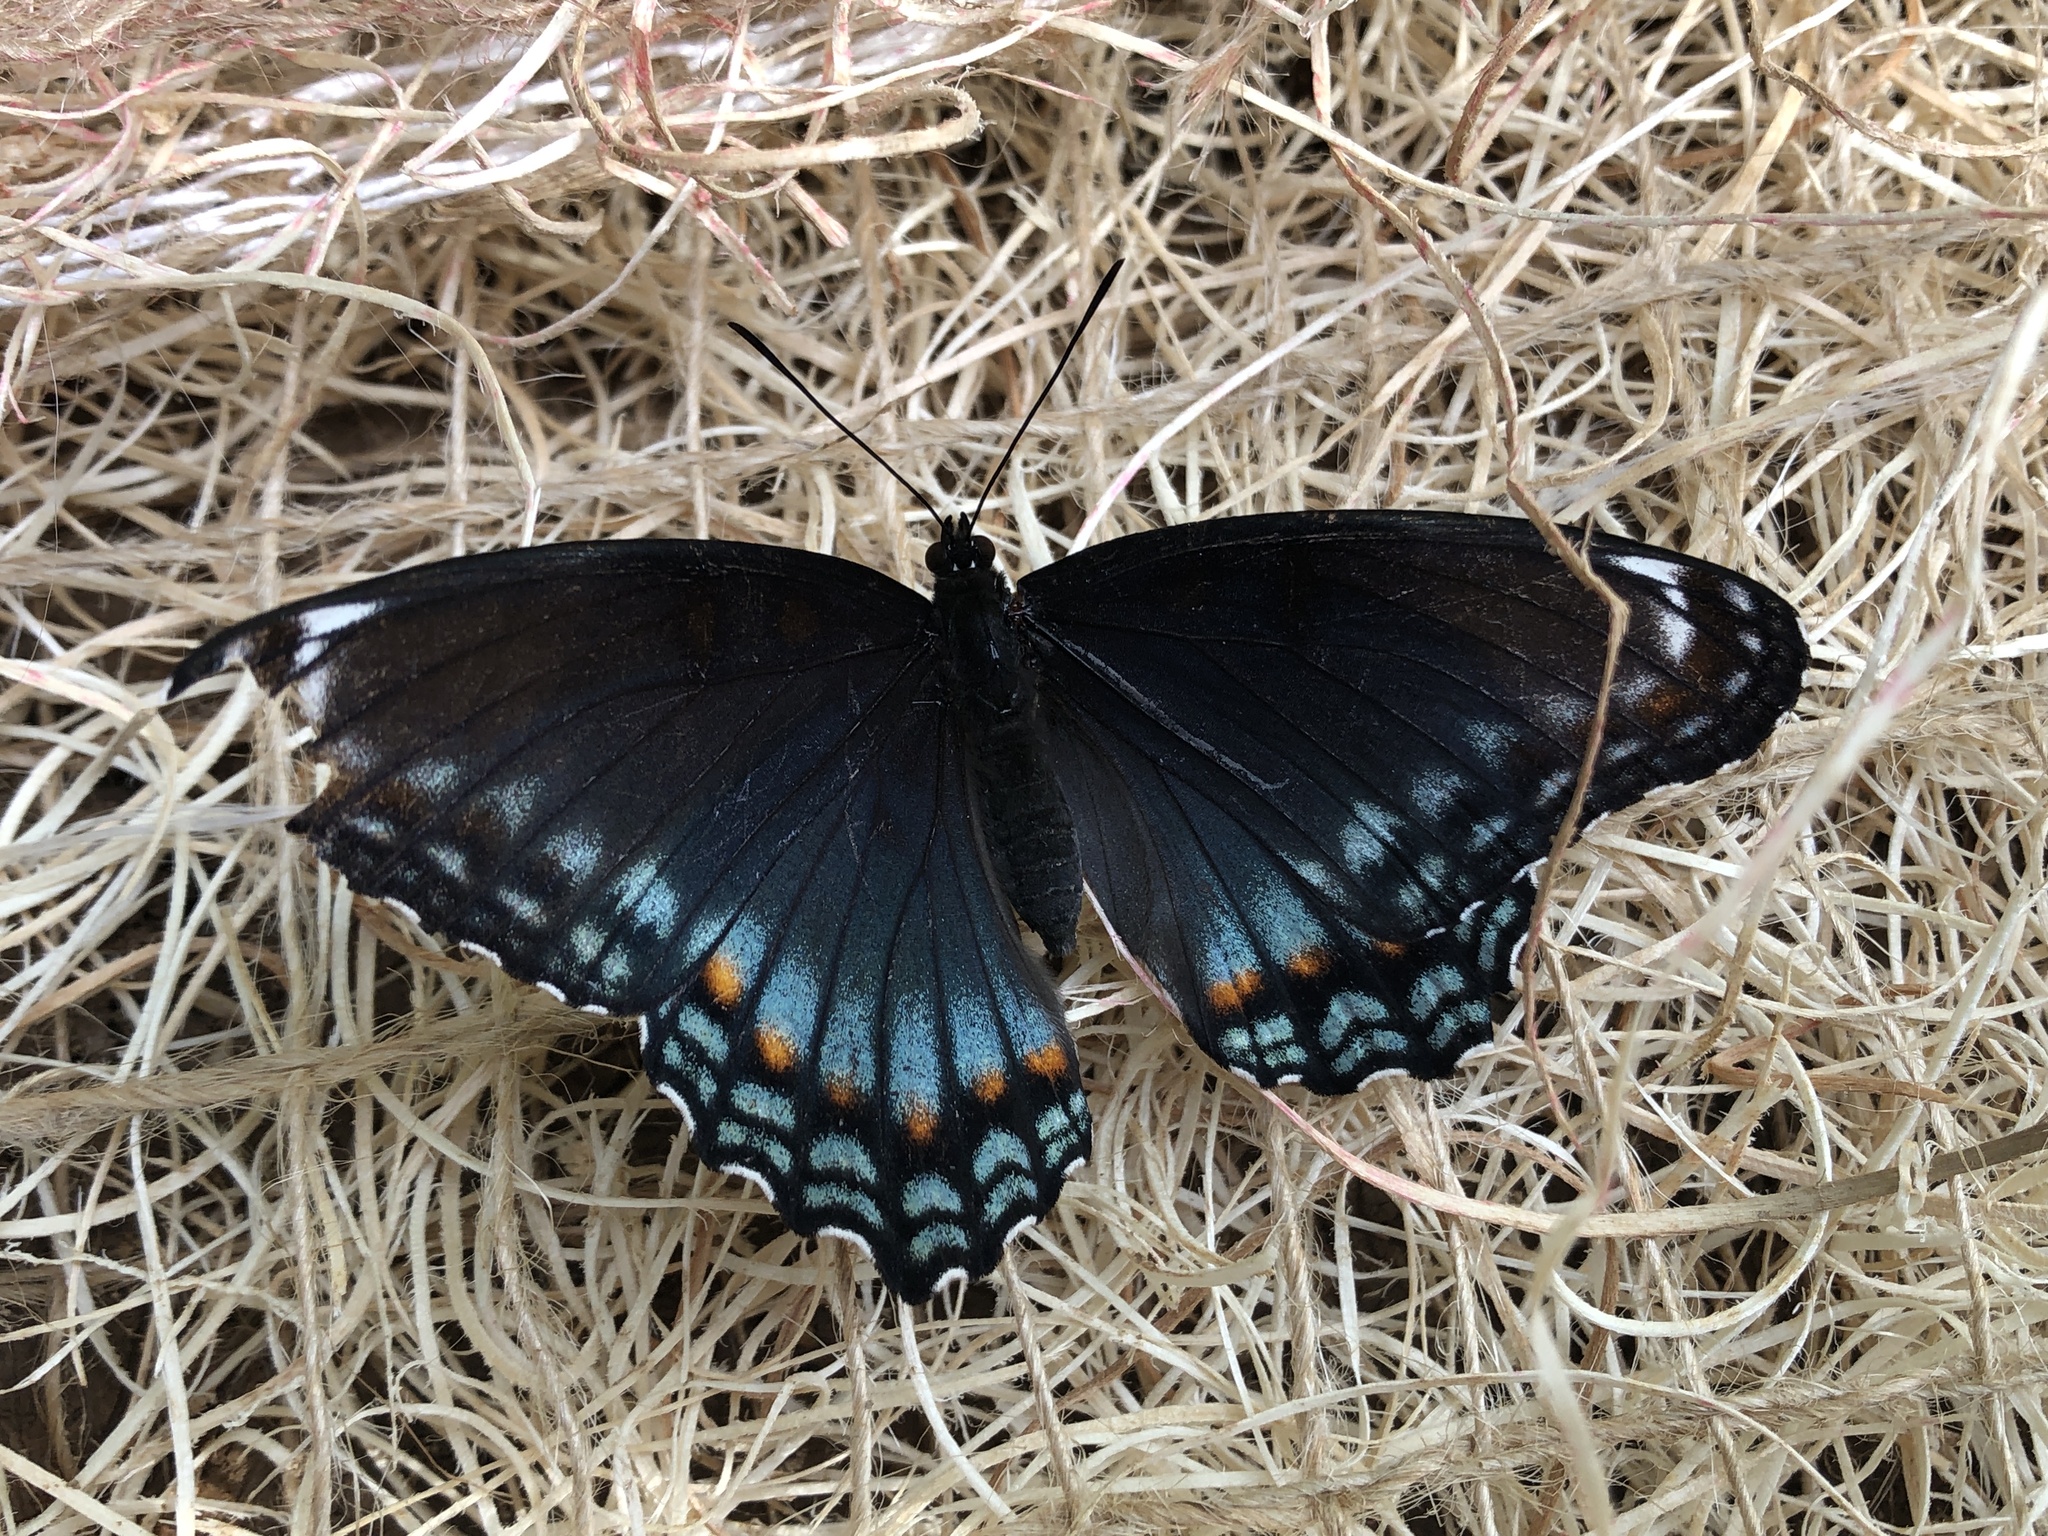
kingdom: Animalia
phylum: Arthropoda
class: Insecta
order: Lepidoptera
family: Nymphalidae
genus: Limenitis
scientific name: Limenitis arthemis
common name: Red-spotted admiral
